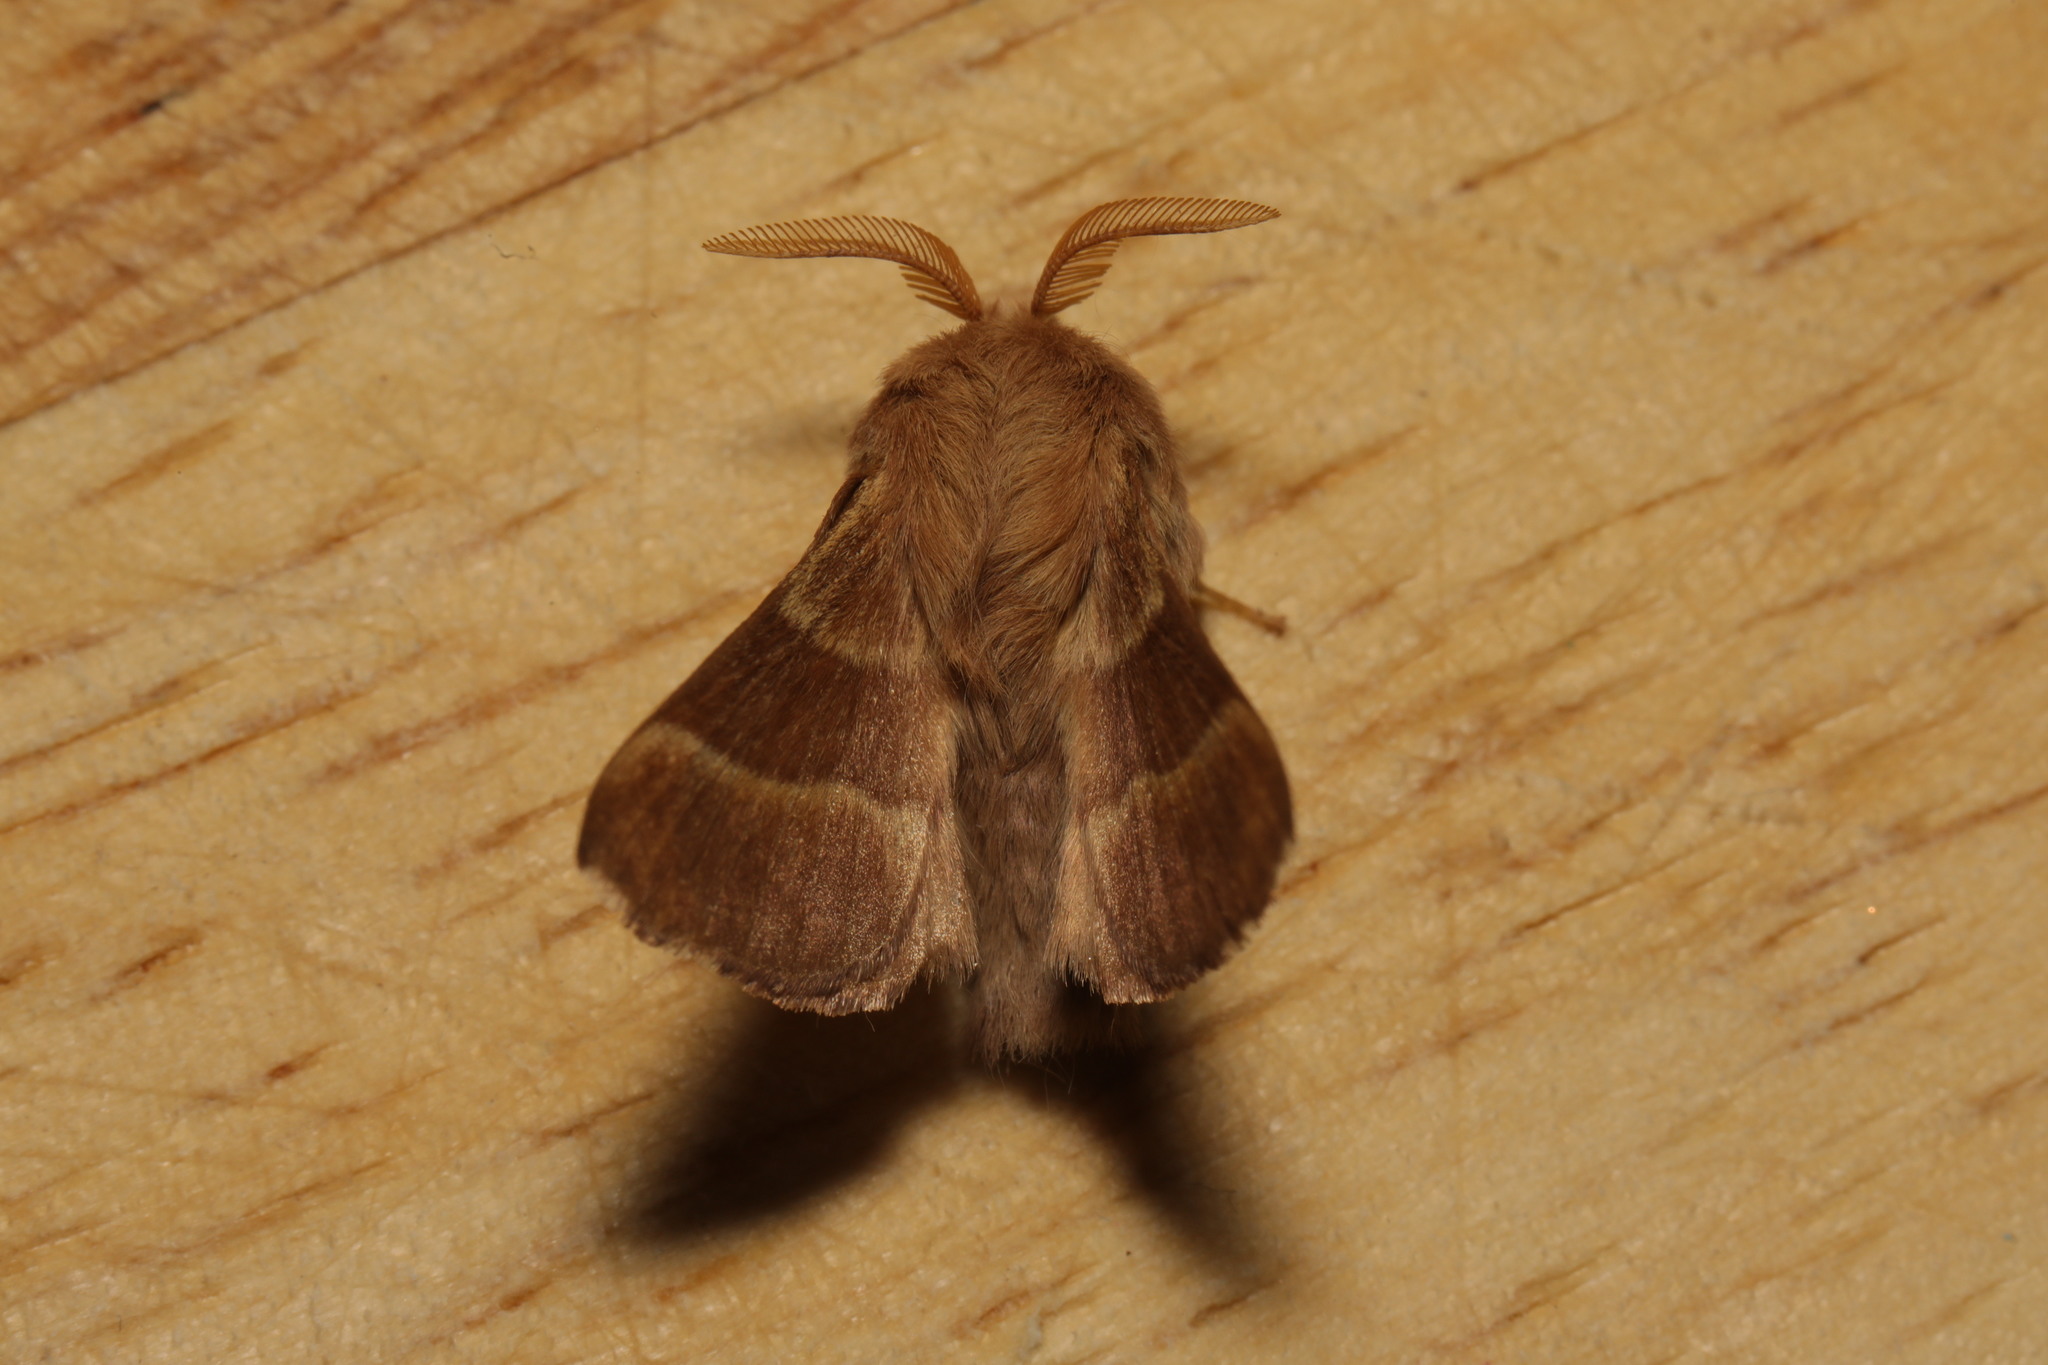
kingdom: Animalia
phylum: Arthropoda
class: Insecta
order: Lepidoptera
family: Lasiocampidae
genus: Malacosoma
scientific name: Malacosoma neustria
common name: The lackey
